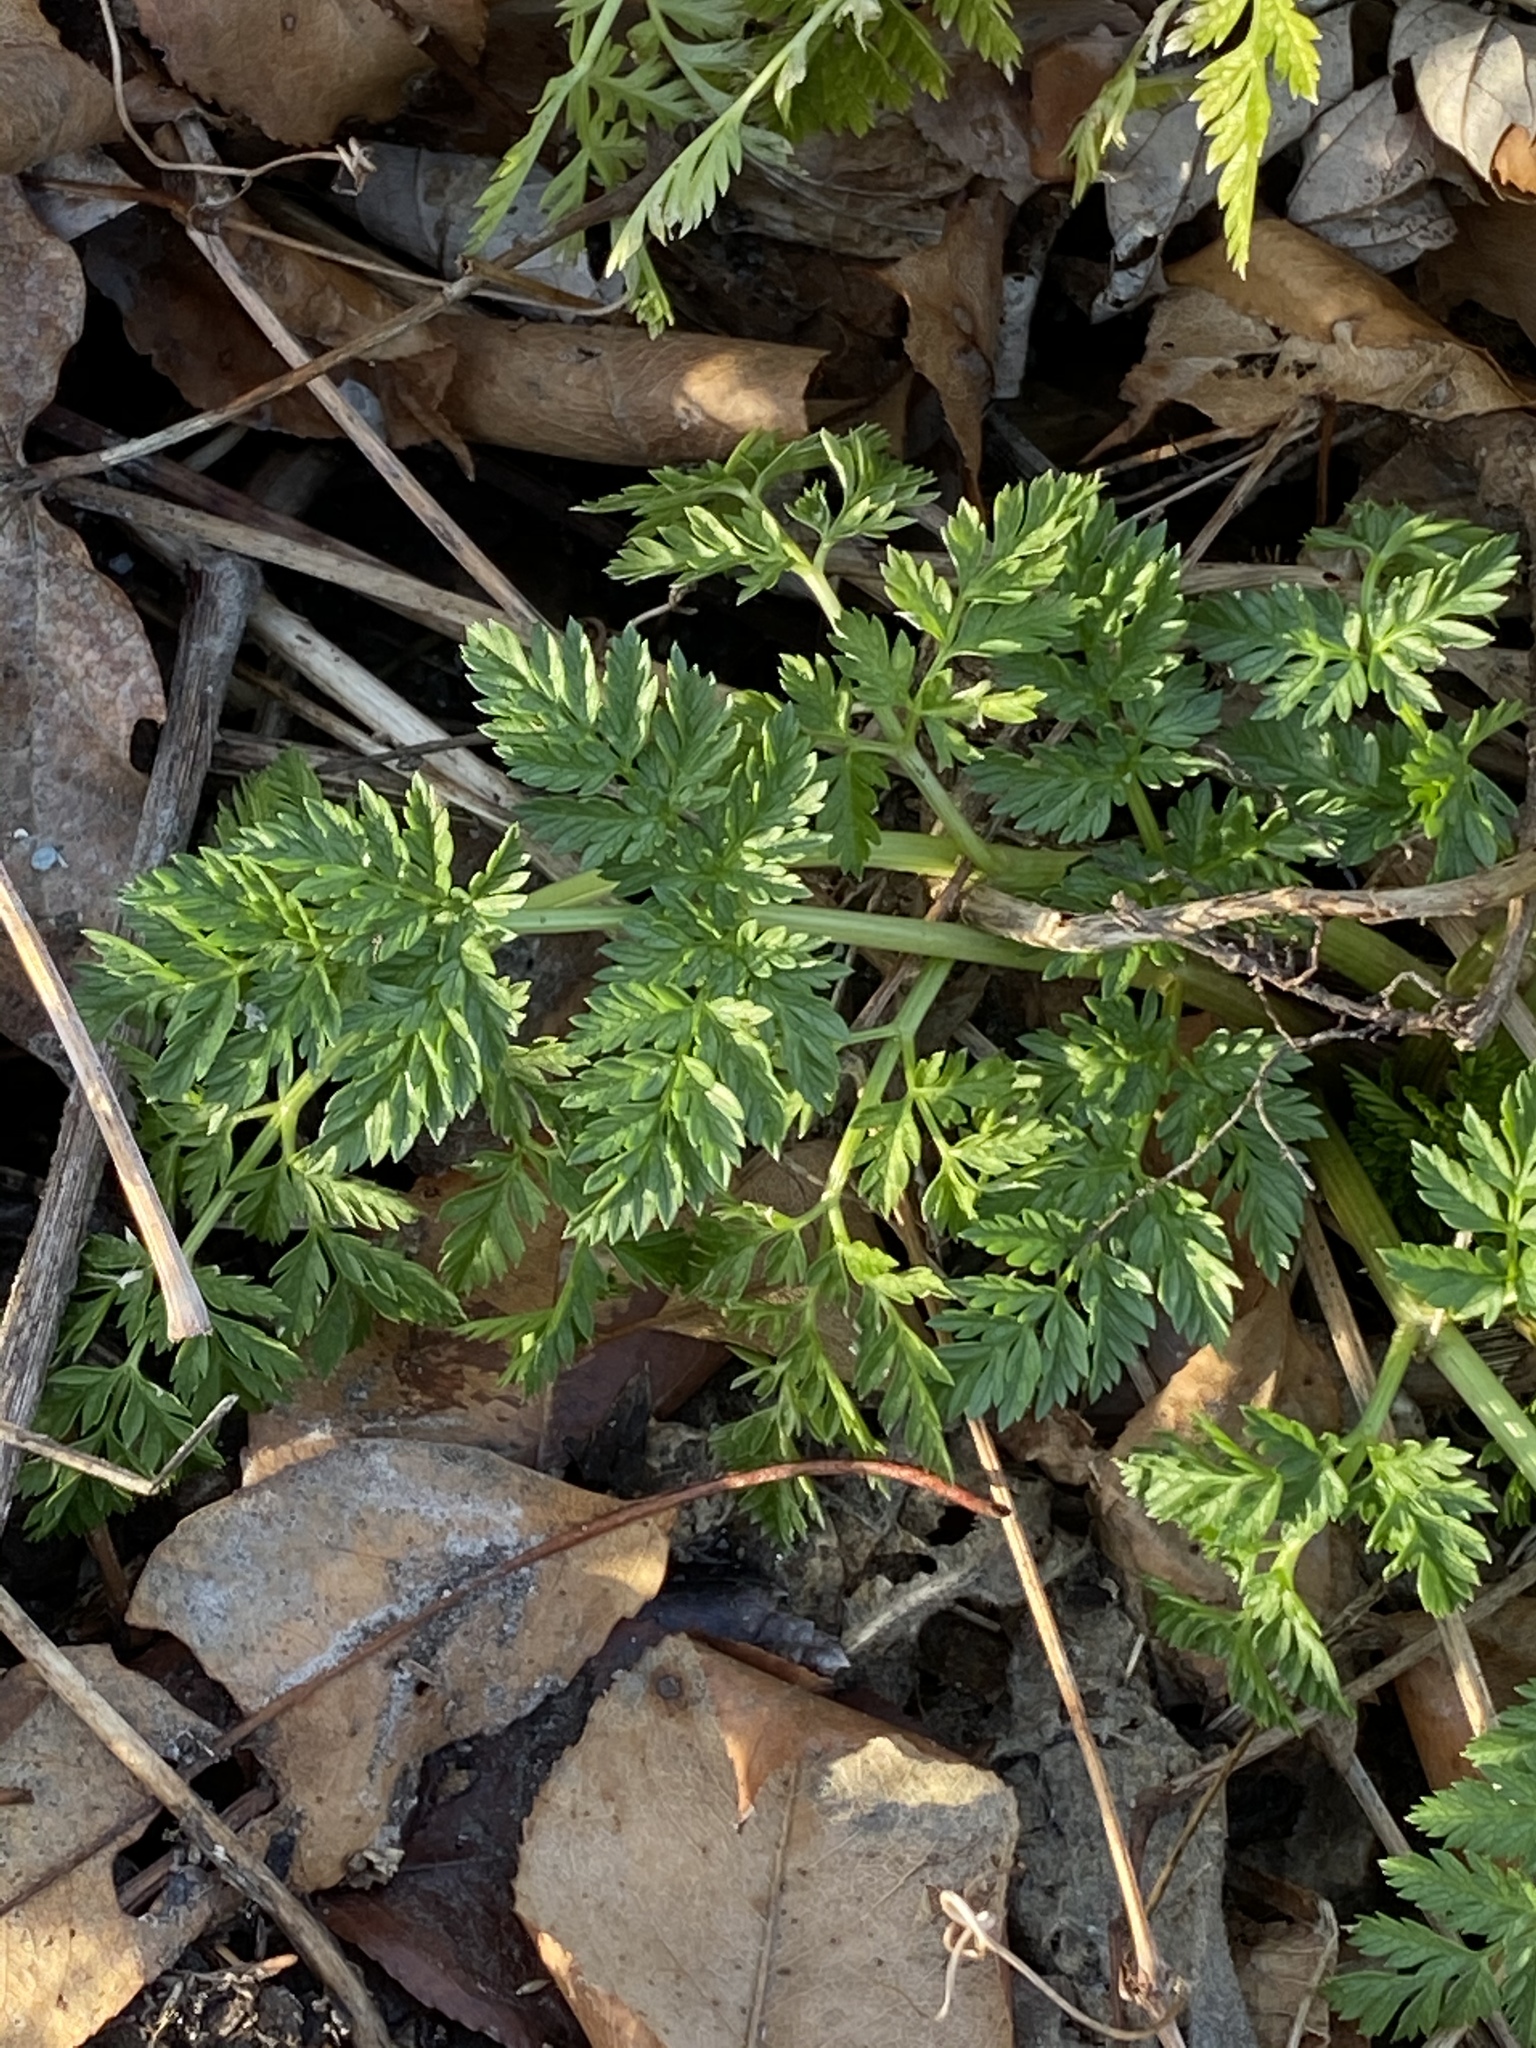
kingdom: Plantae
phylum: Tracheophyta
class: Magnoliopsida
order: Apiales
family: Apiaceae
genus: Conium
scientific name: Conium maculatum
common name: Hemlock
